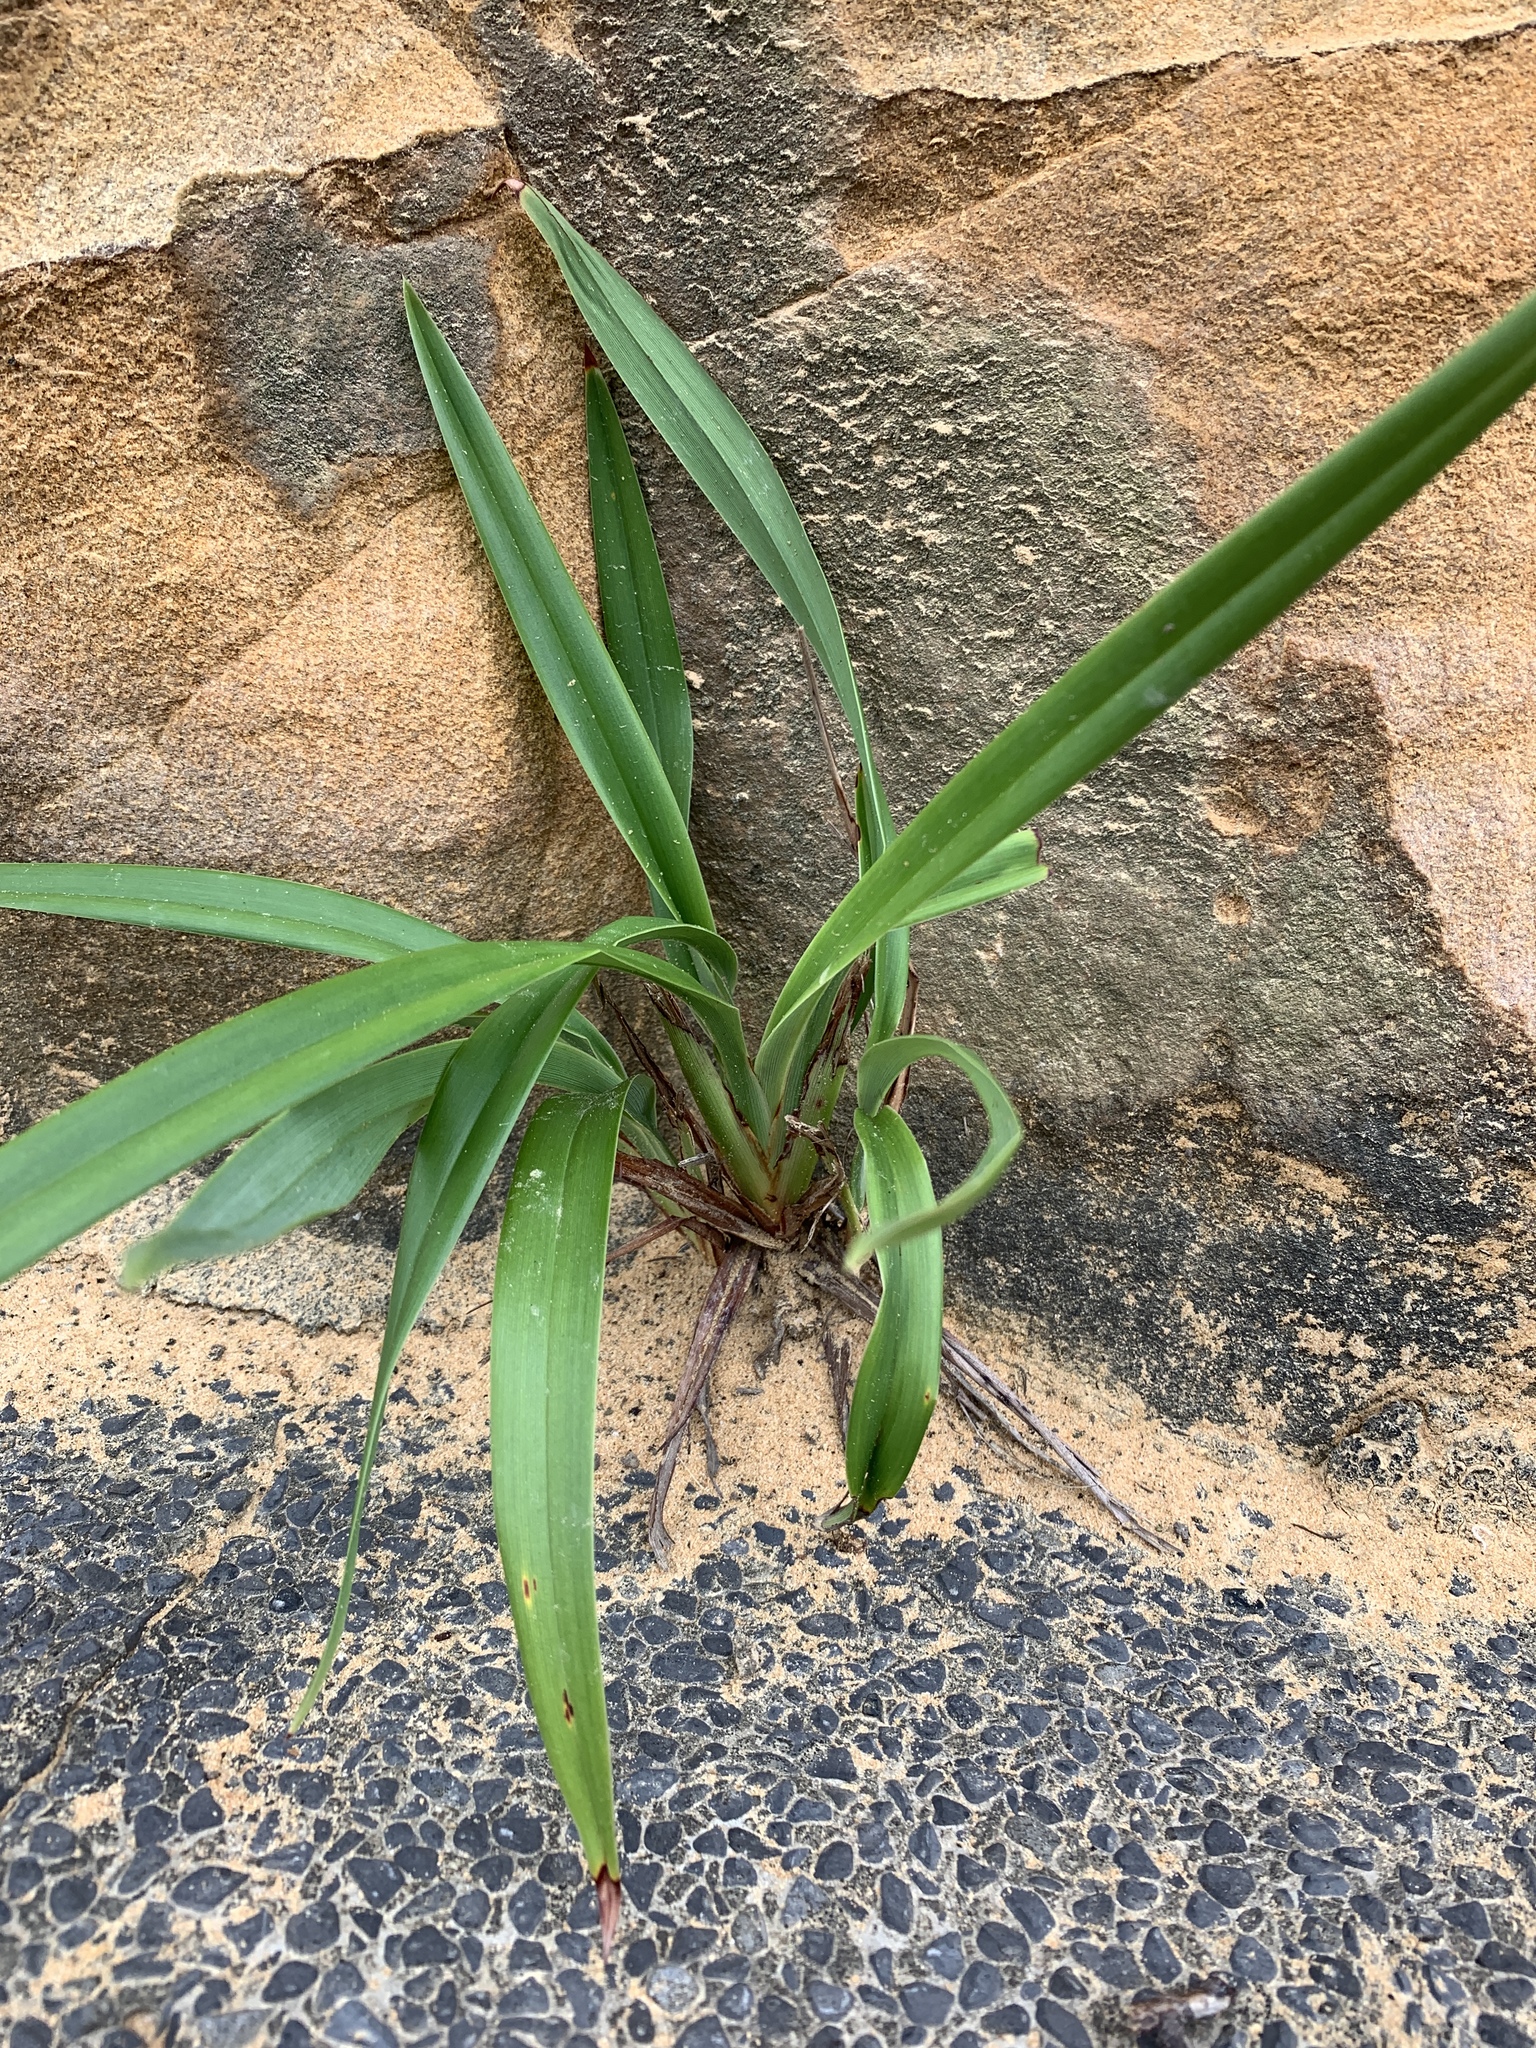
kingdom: Plantae
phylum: Tracheophyta
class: Liliopsida
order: Asparagales
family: Asphodelaceae
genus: Dianella
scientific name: Dianella ensifolia
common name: New zealand lilyplant
